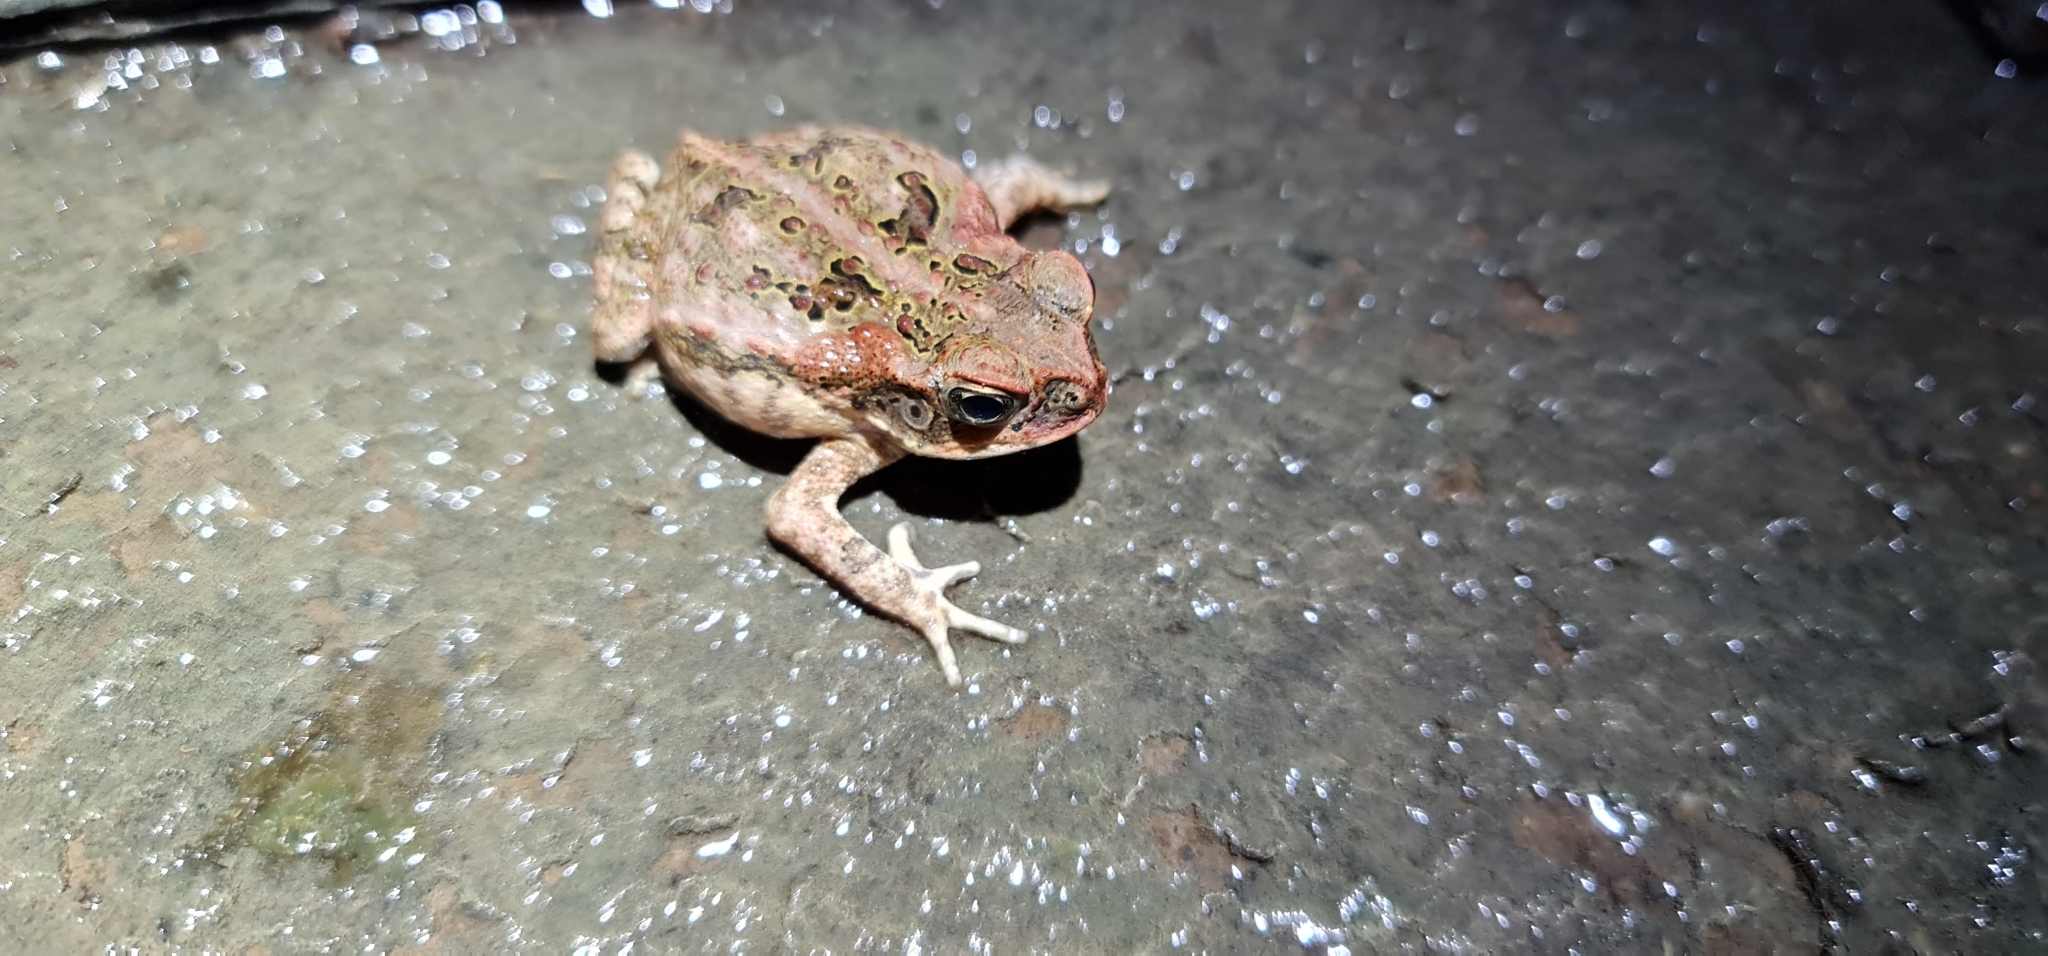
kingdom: Animalia
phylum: Chordata
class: Amphibia
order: Anura
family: Bufonidae
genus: Rhinella
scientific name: Rhinella marina
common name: Cane toad
